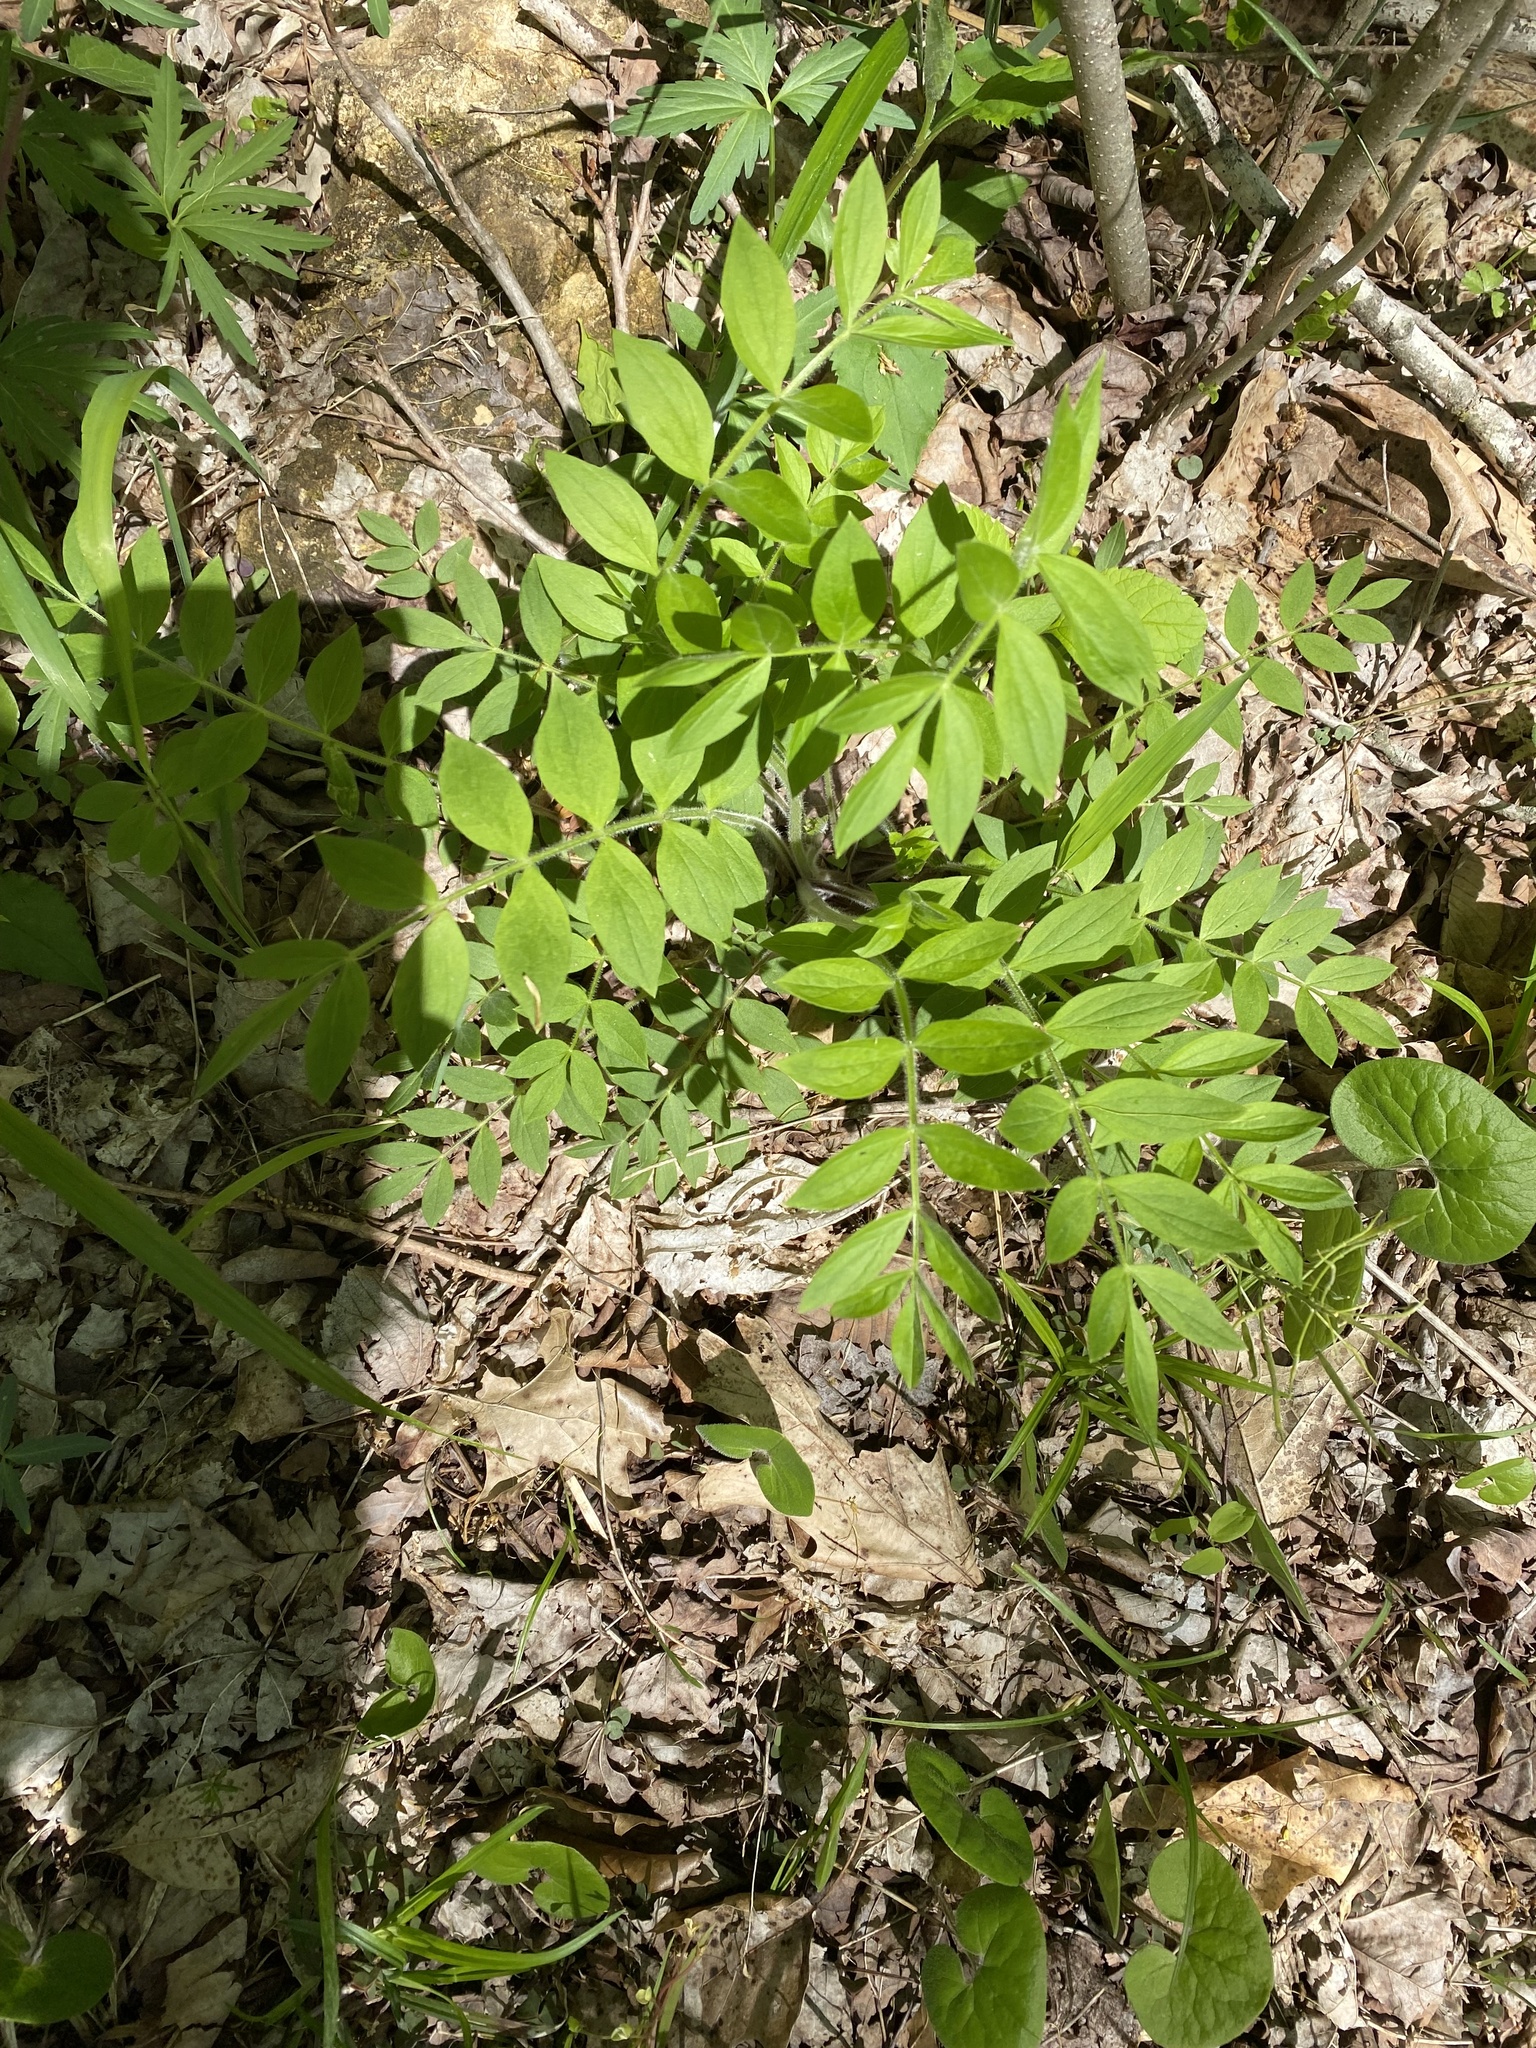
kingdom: Plantae
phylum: Tracheophyta
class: Magnoliopsida
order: Ericales
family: Polemoniaceae
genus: Polemonium
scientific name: Polemonium reptans
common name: Creeping jacob's-ladder
